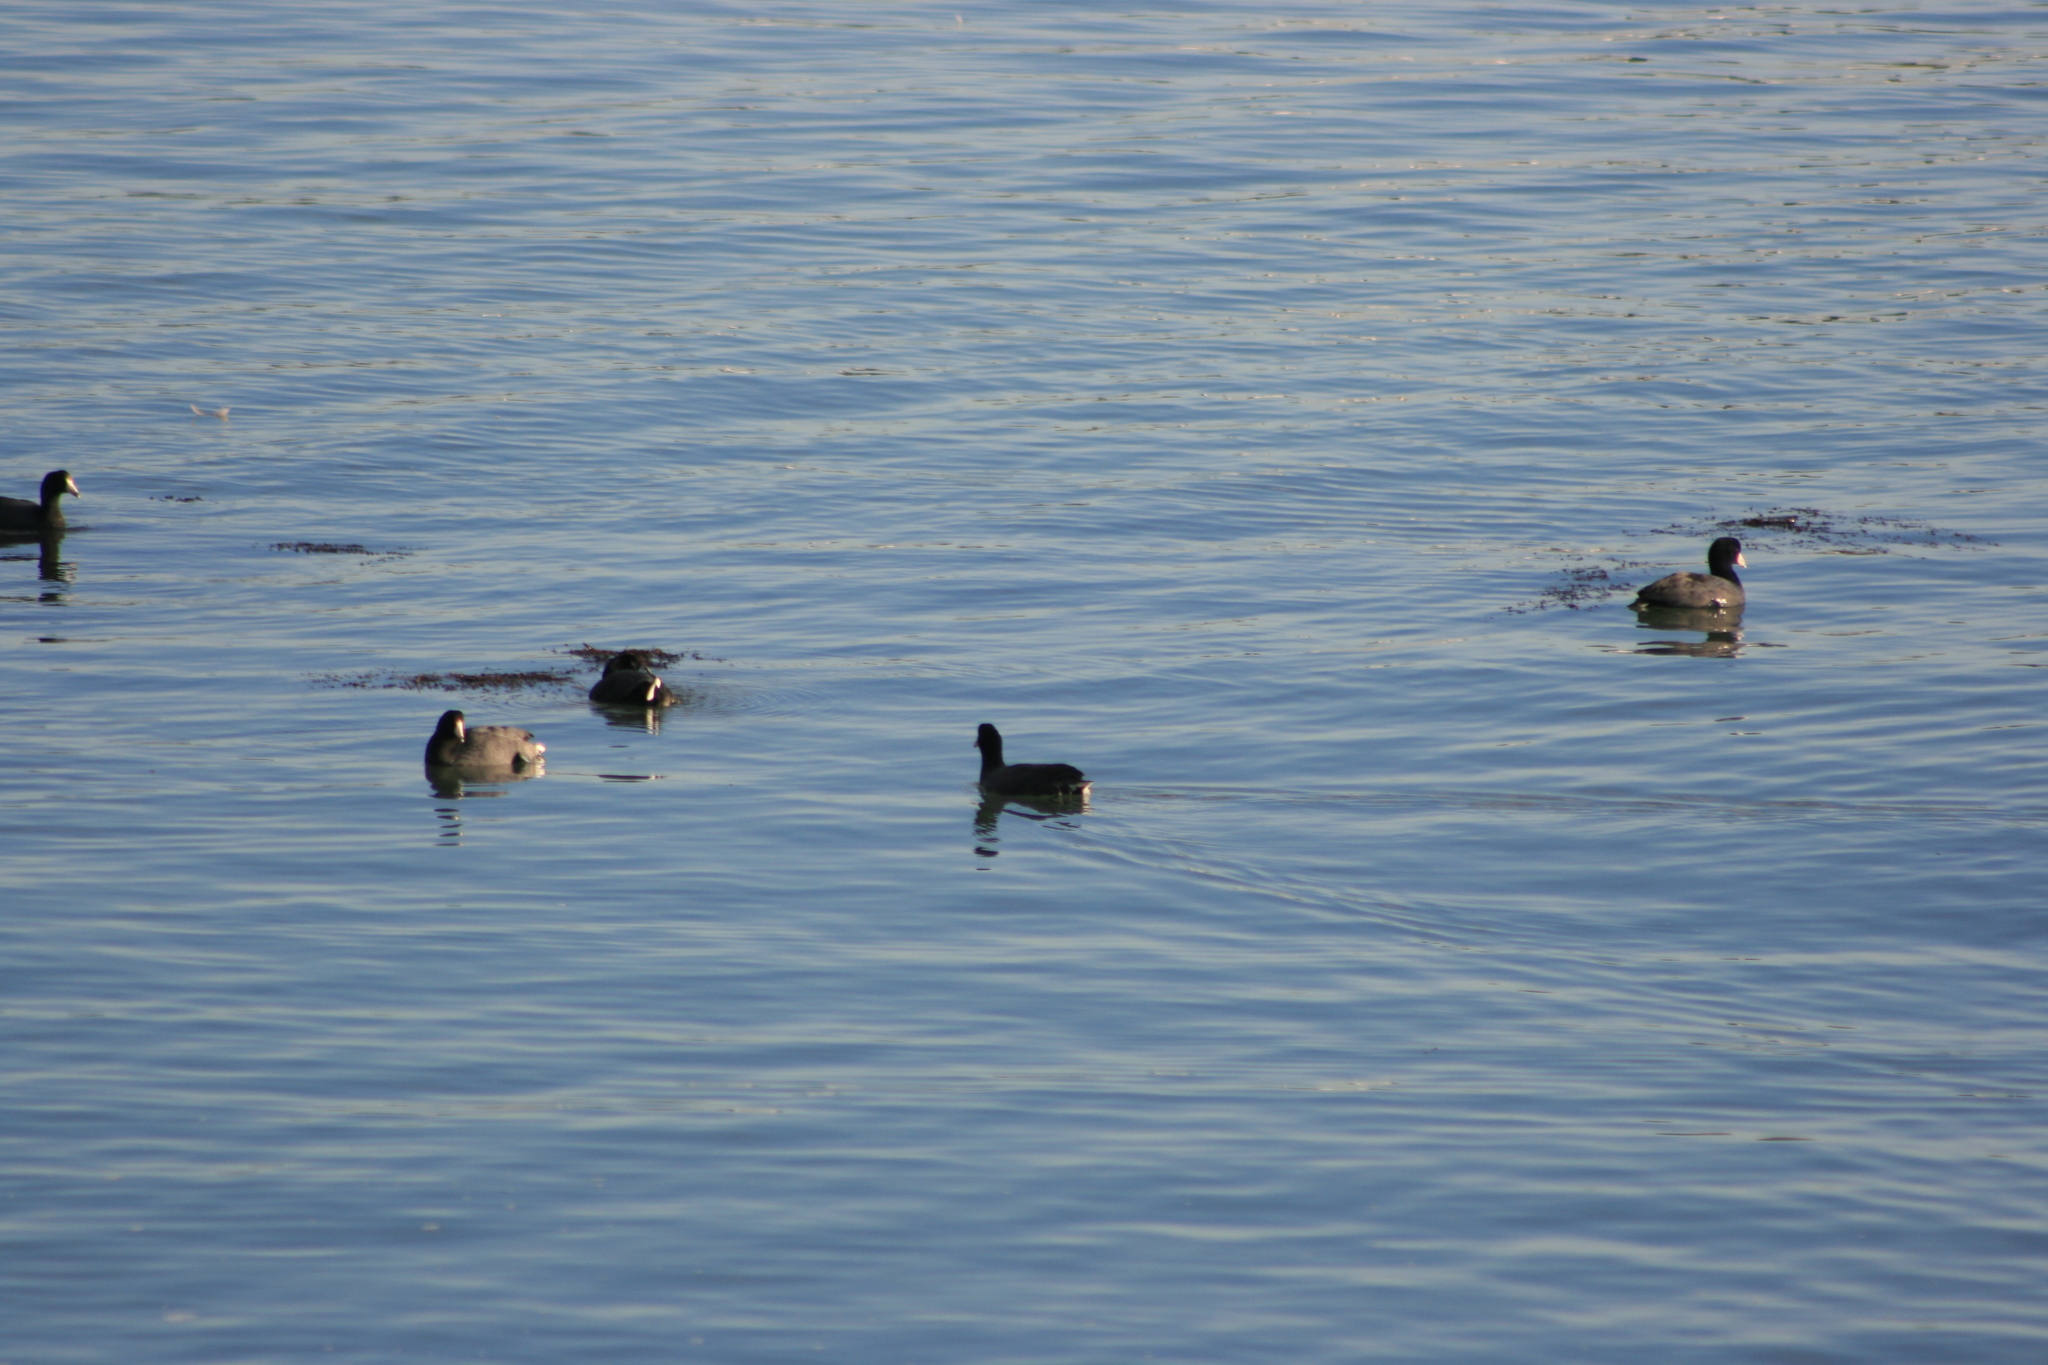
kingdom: Animalia
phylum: Chordata
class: Aves
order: Gruiformes
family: Rallidae
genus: Fulica
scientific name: Fulica americana
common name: American coot
